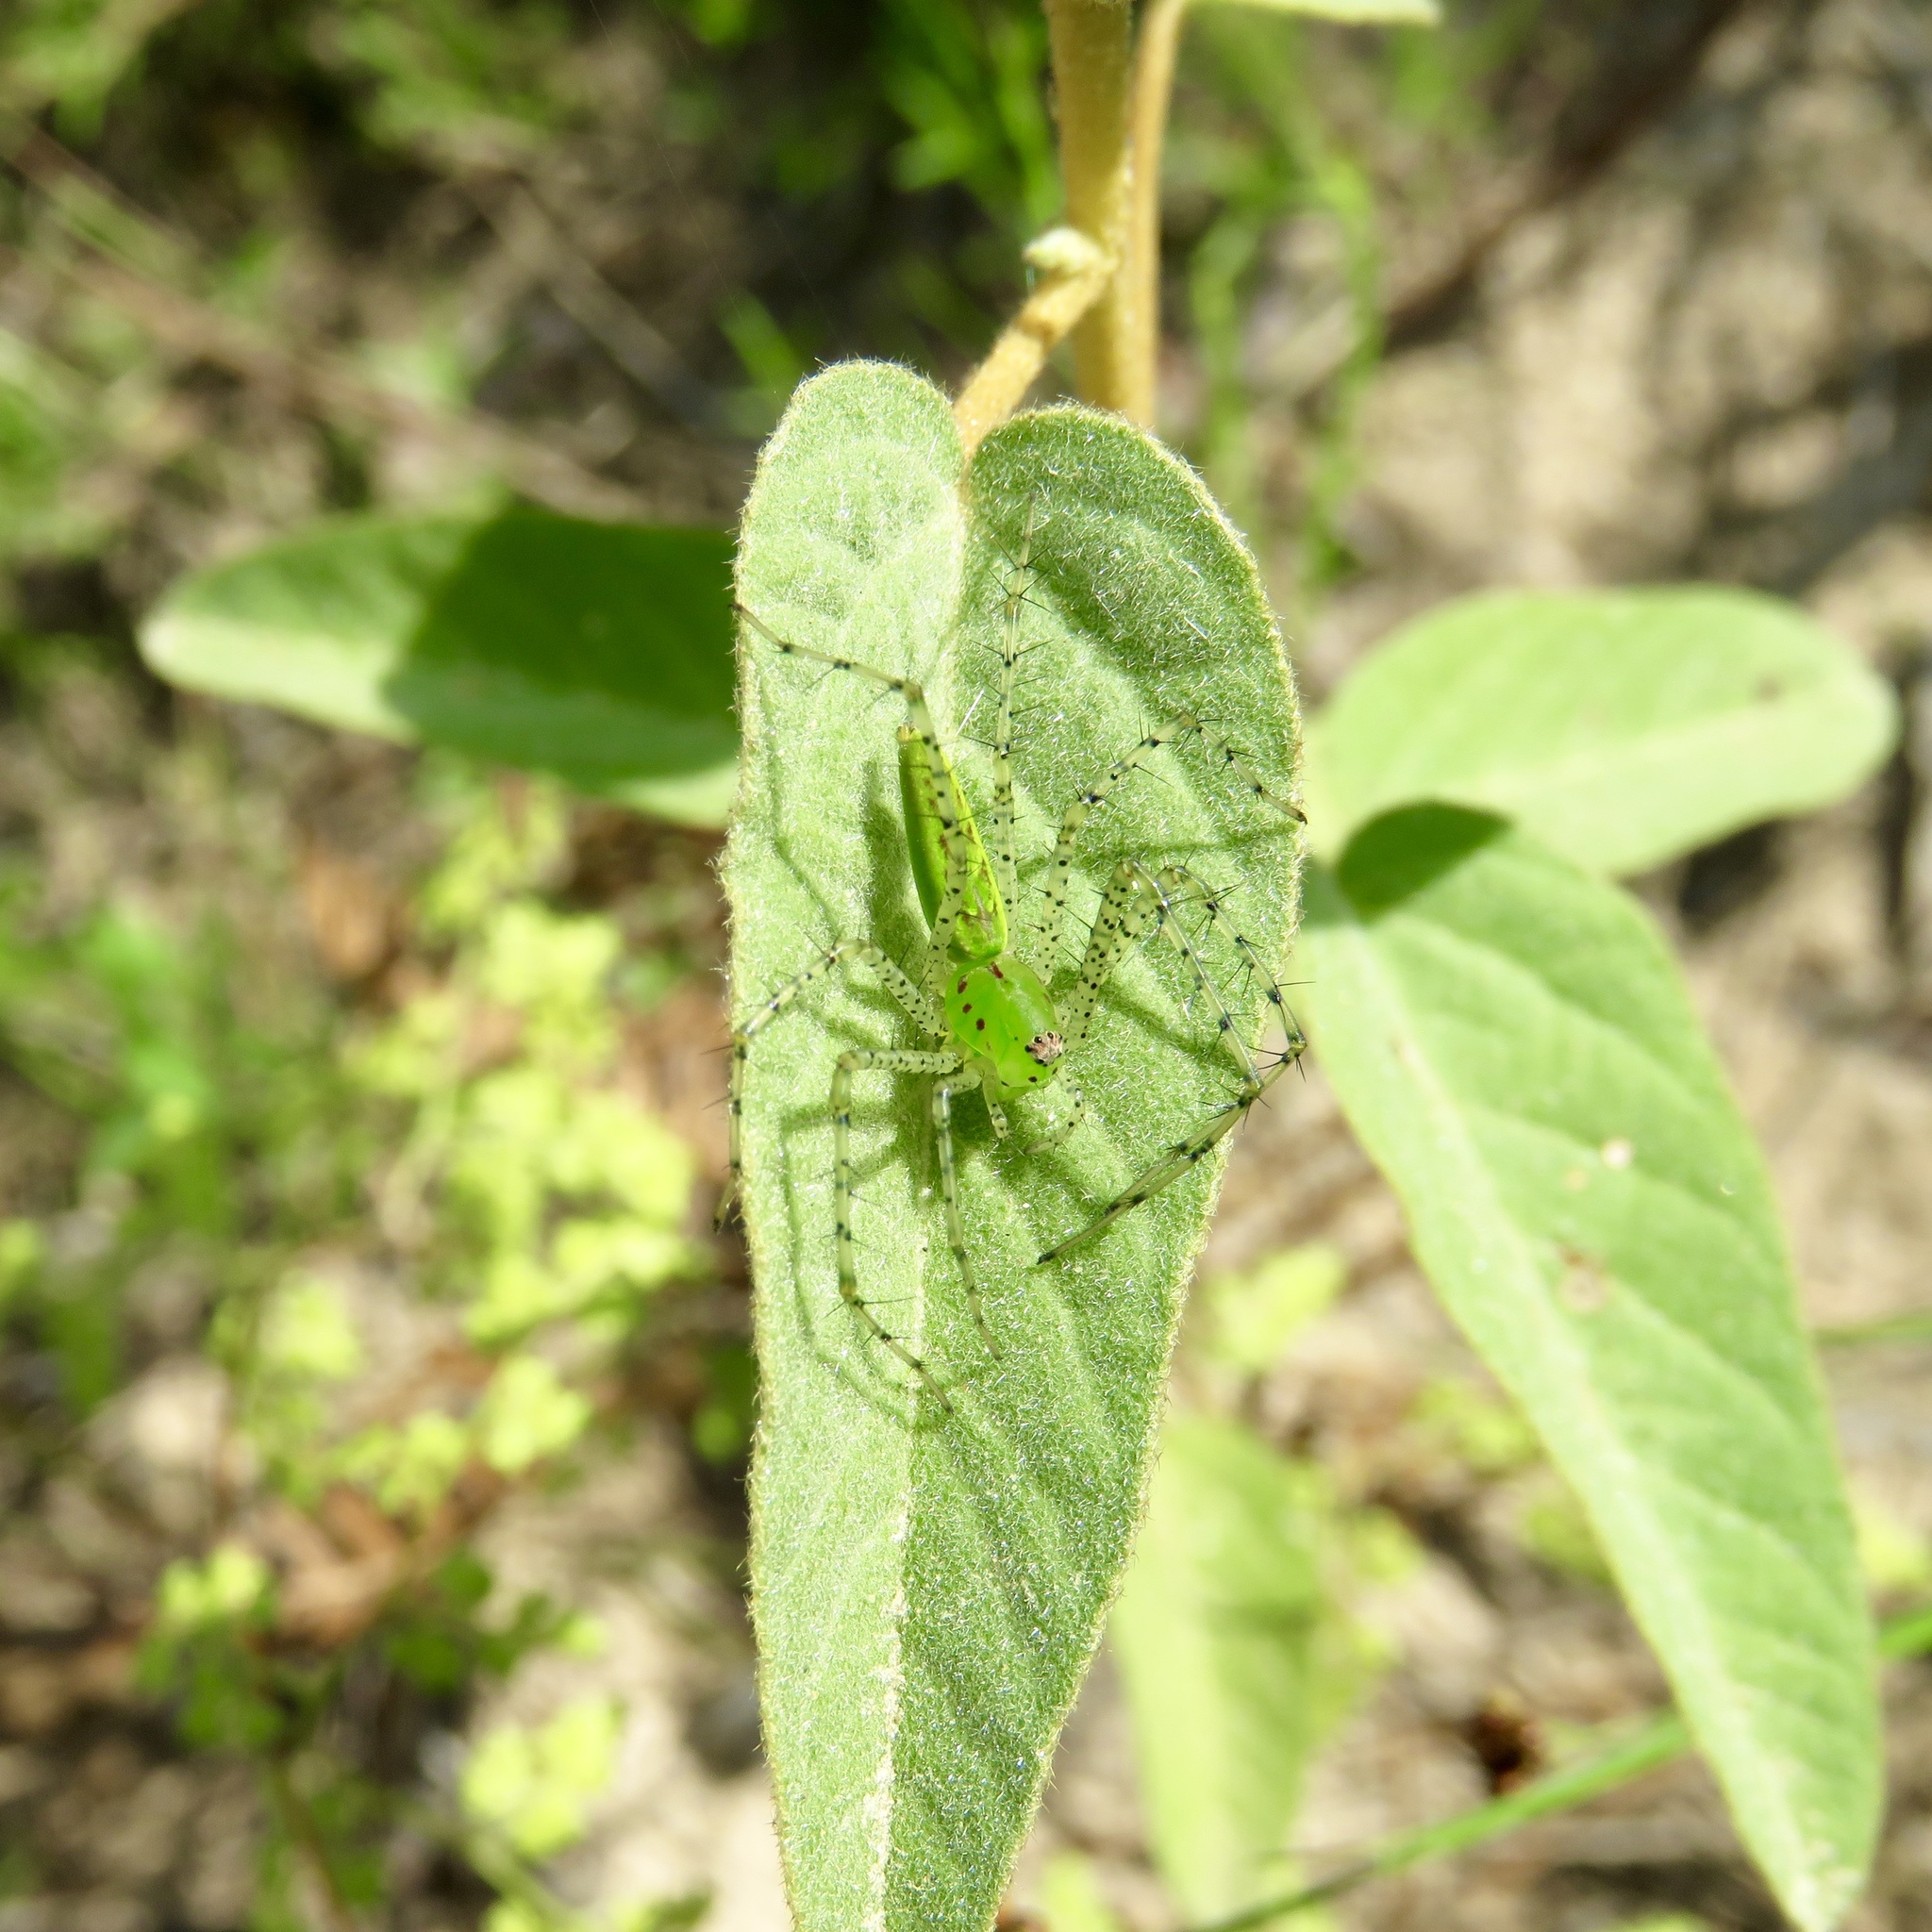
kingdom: Animalia
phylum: Arthropoda
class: Arachnida
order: Araneae
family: Oxyopidae
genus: Peucetia
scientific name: Peucetia viridans
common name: Lynx spiders
